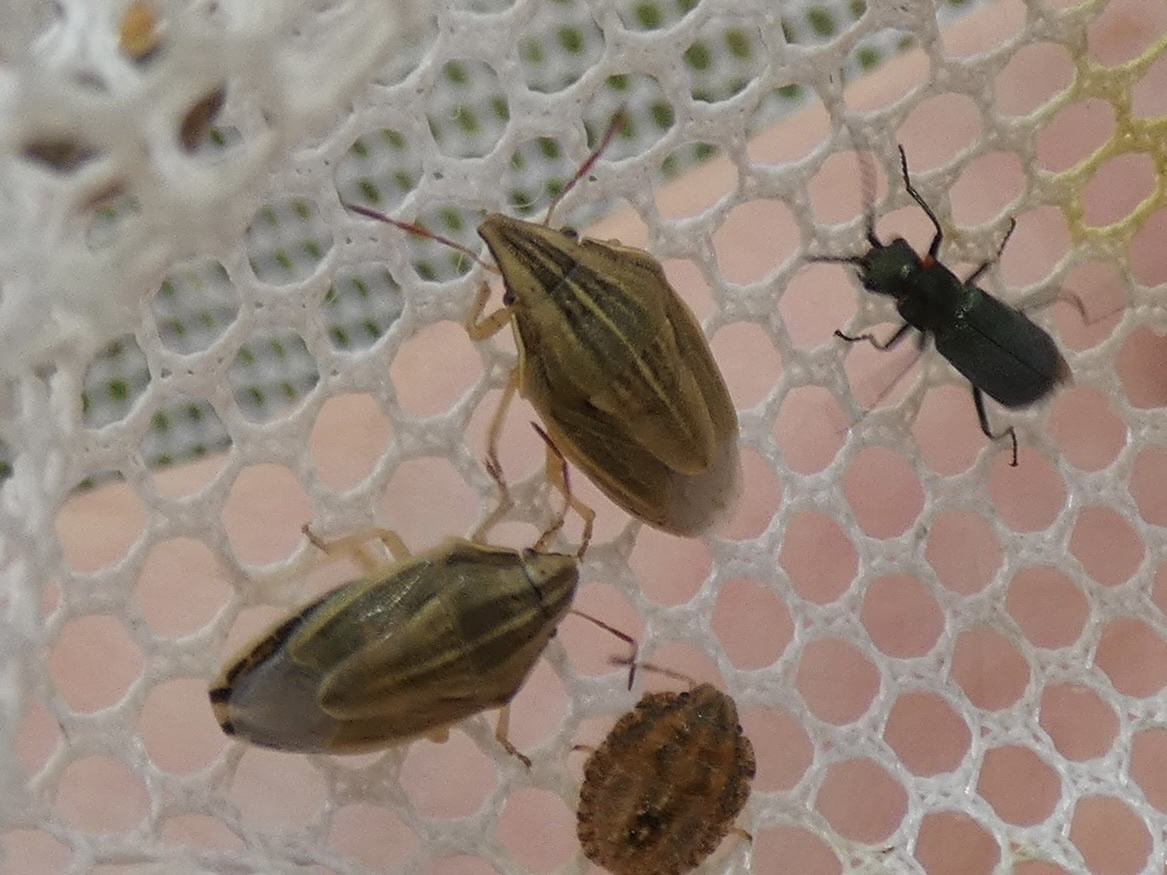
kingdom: Animalia
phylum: Arthropoda
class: Insecta
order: Hemiptera
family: Pentatomidae
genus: Aelia
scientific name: Aelia acuminata
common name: Bishop's mitre
